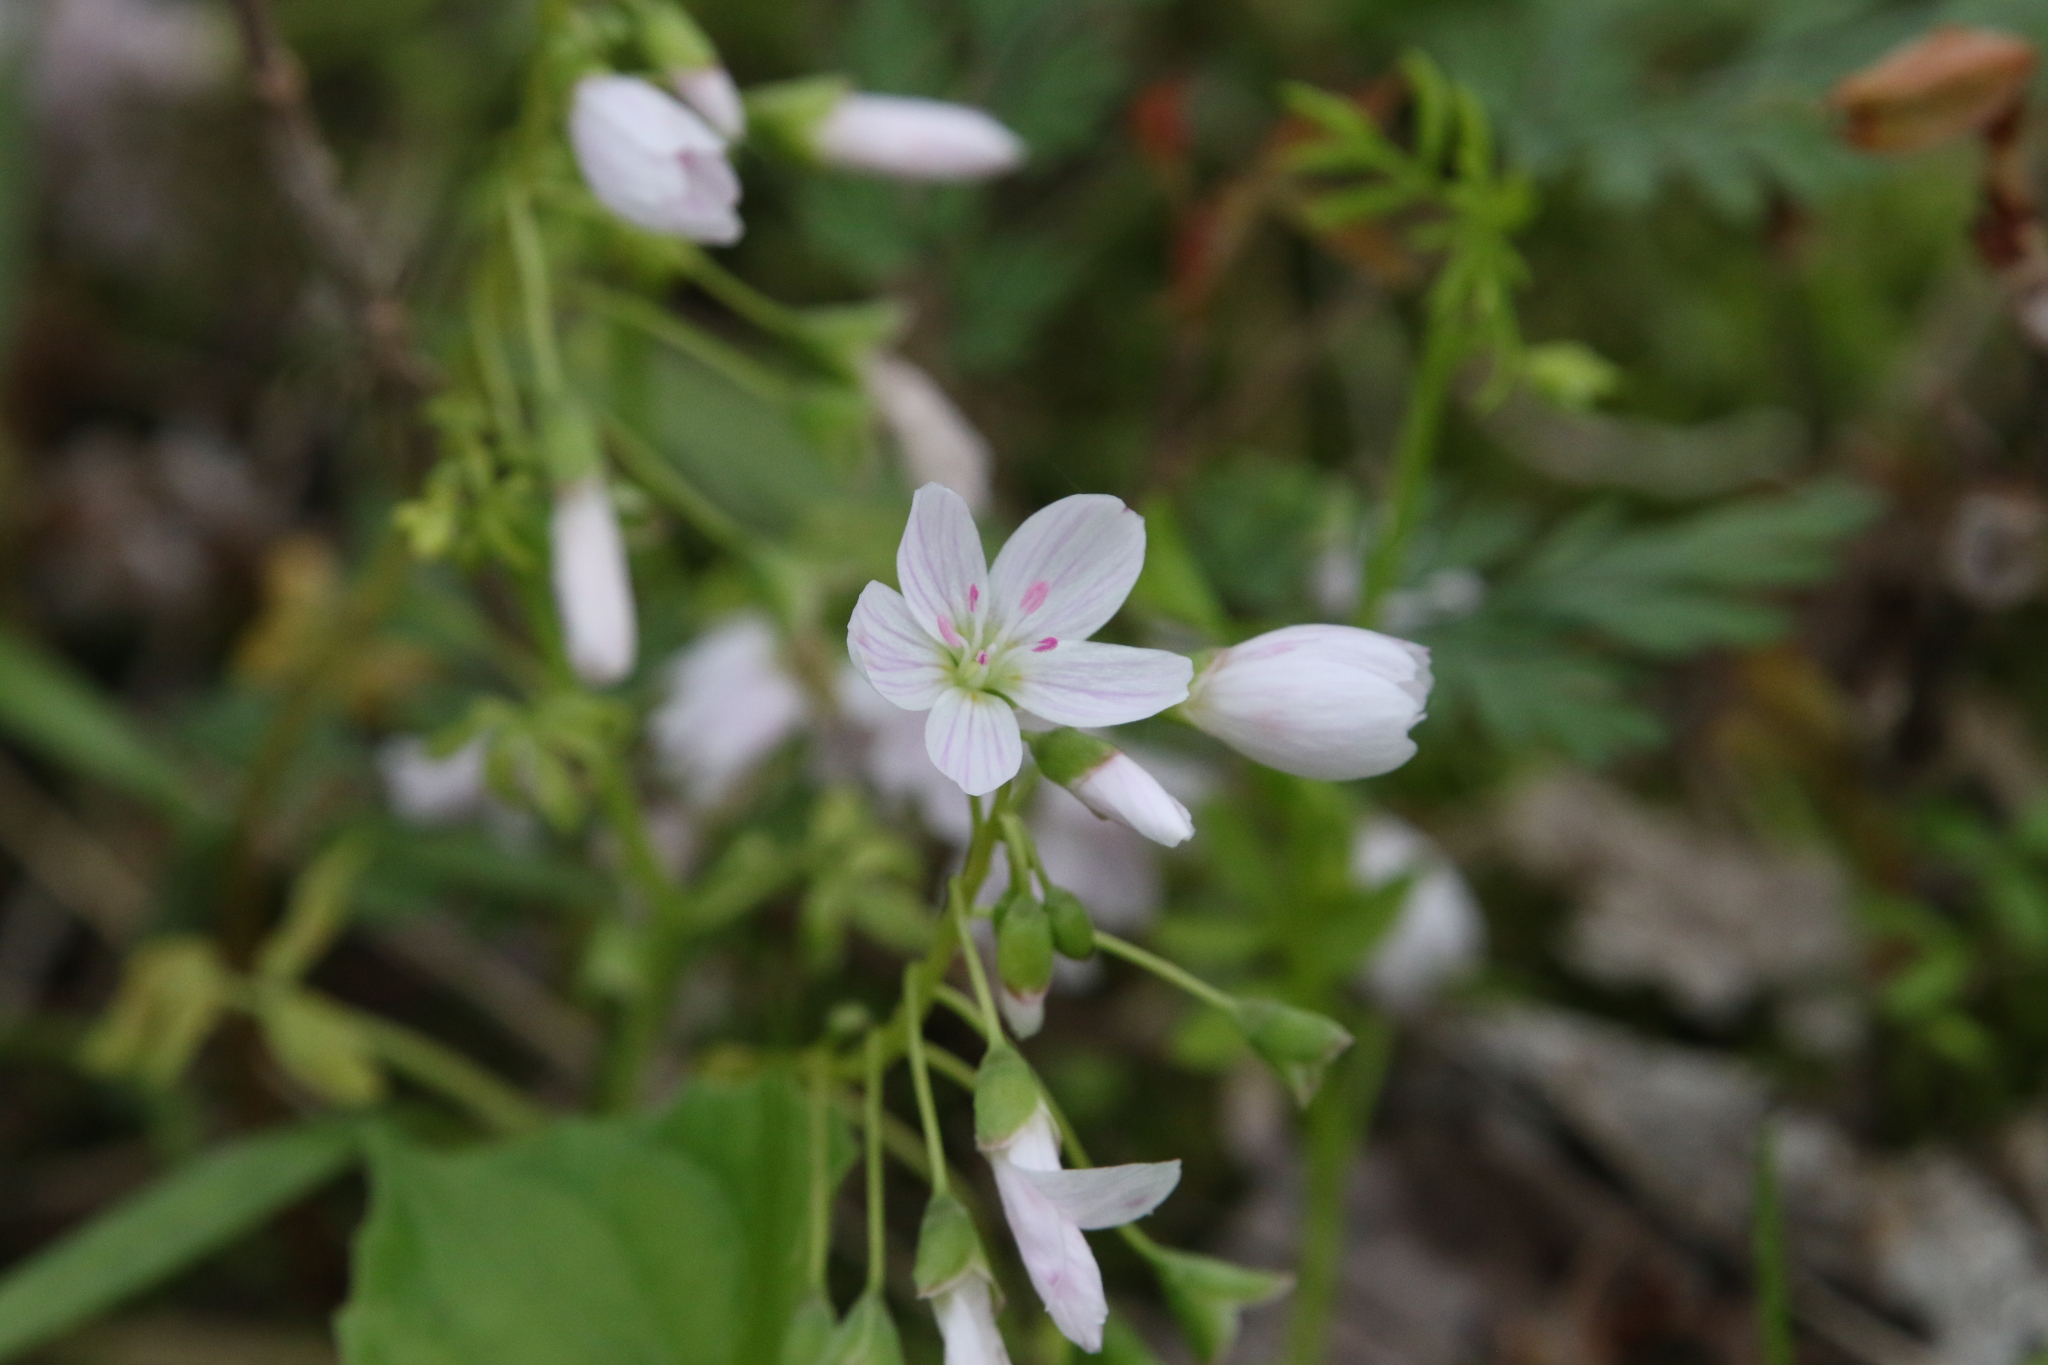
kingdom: Plantae
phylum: Tracheophyta
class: Magnoliopsida
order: Caryophyllales
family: Montiaceae
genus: Claytonia
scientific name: Claytonia virginica
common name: Virginia springbeauty
